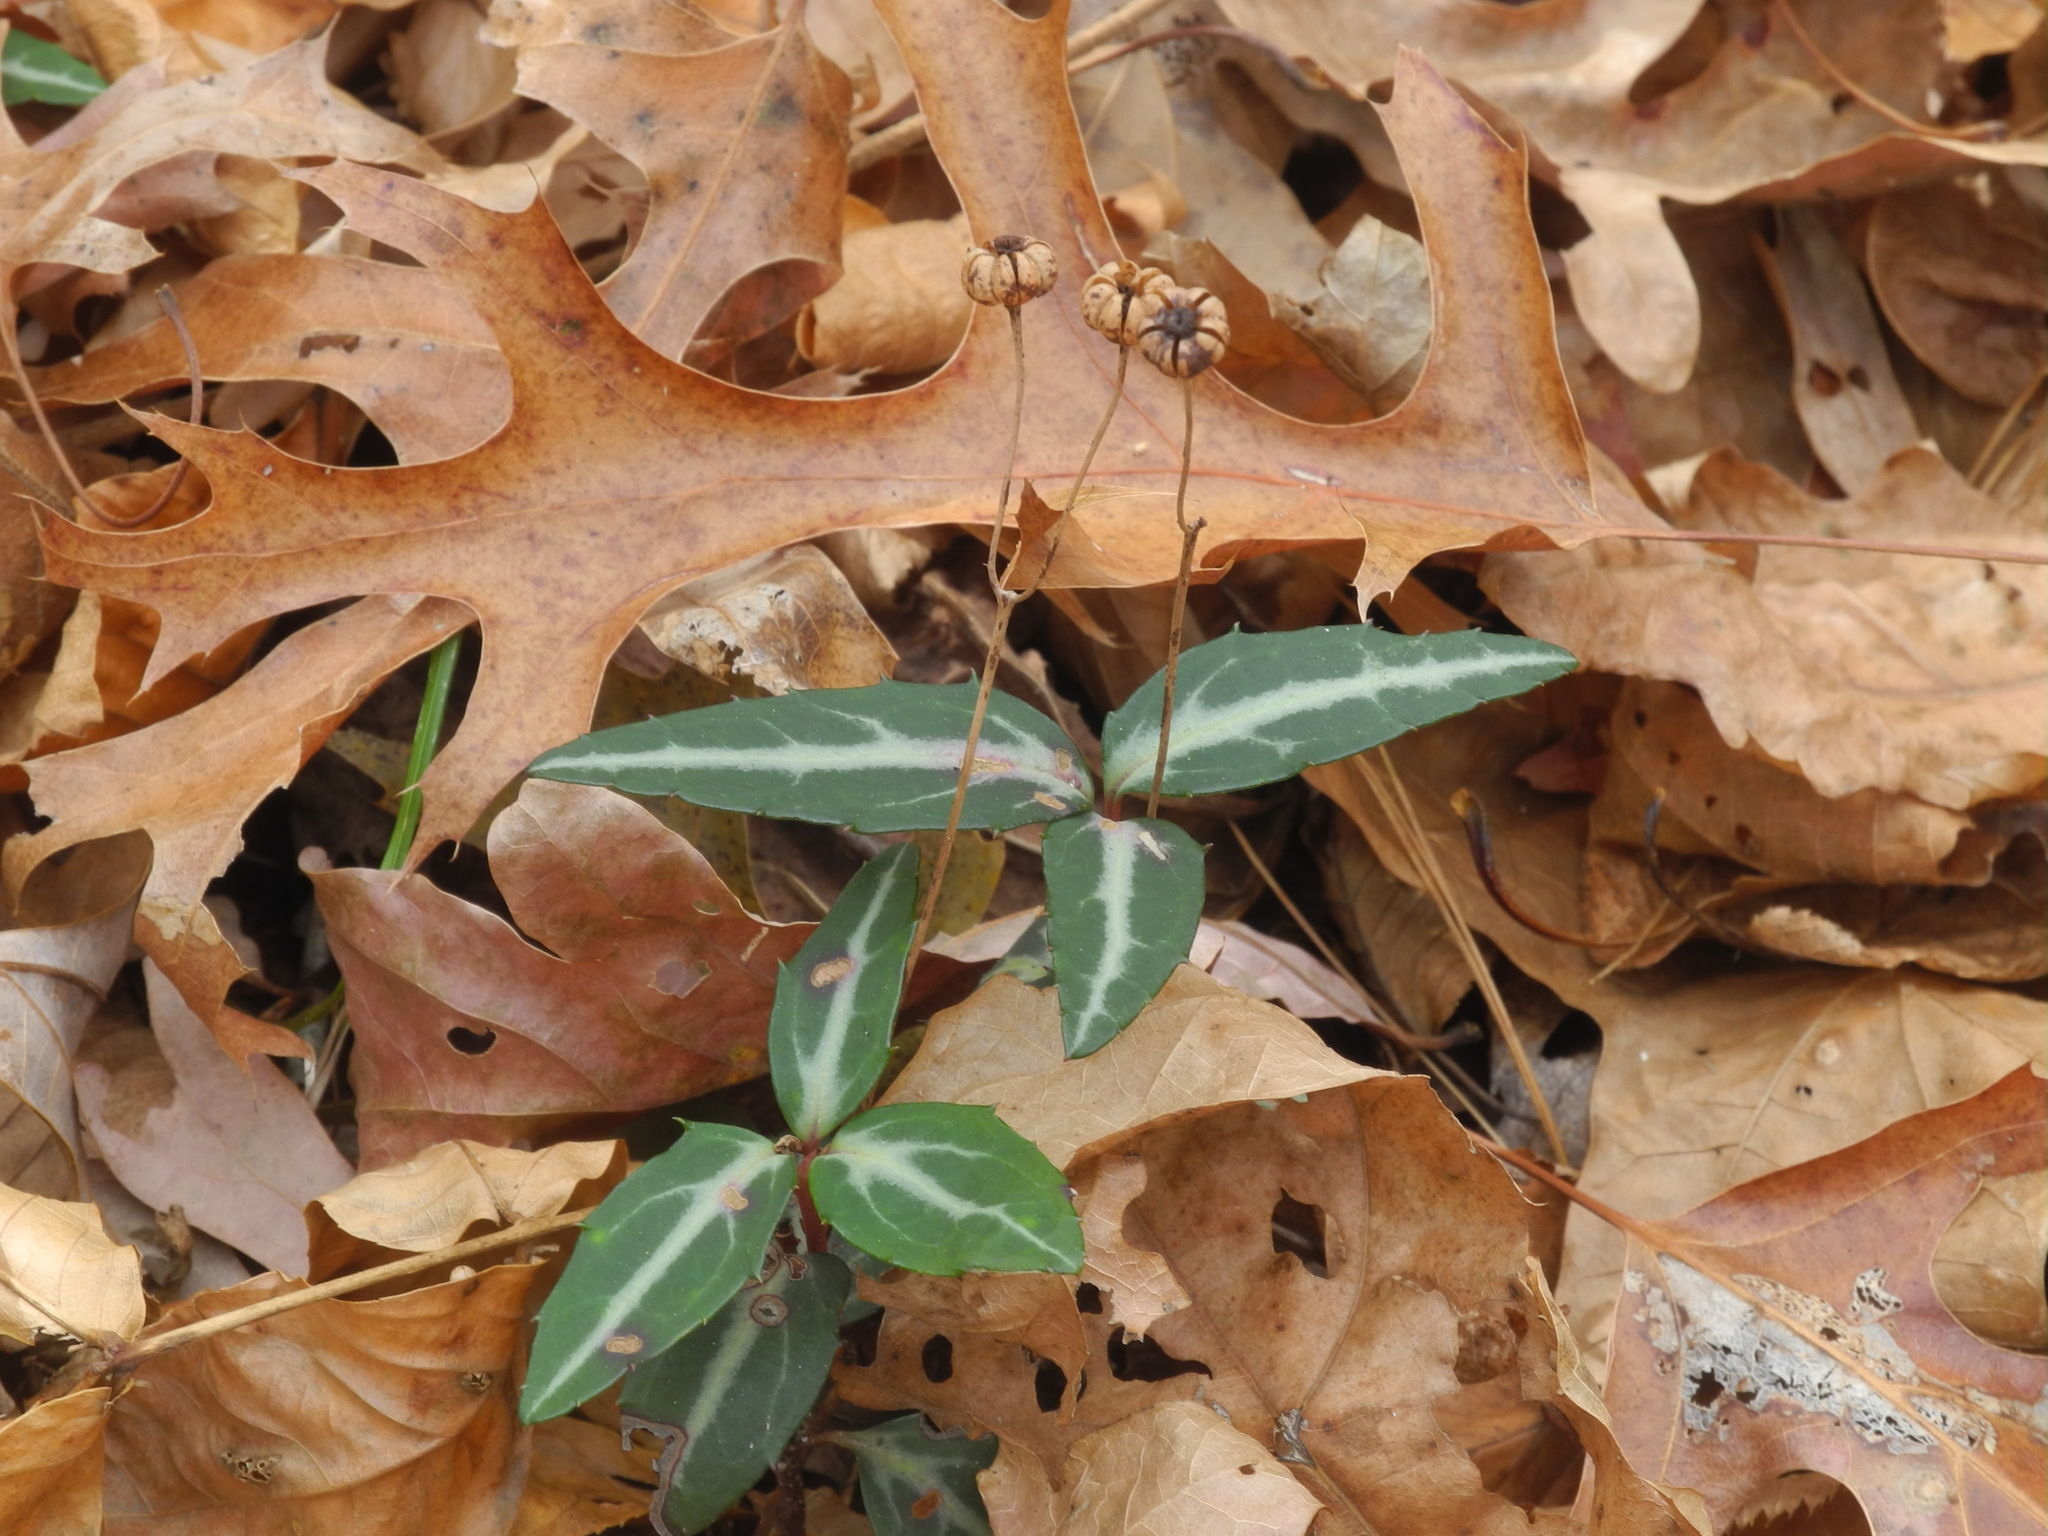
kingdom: Plantae
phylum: Tracheophyta
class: Magnoliopsida
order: Ericales
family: Ericaceae
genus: Chimaphila
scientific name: Chimaphila maculata
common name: Spotted pipsissewa
